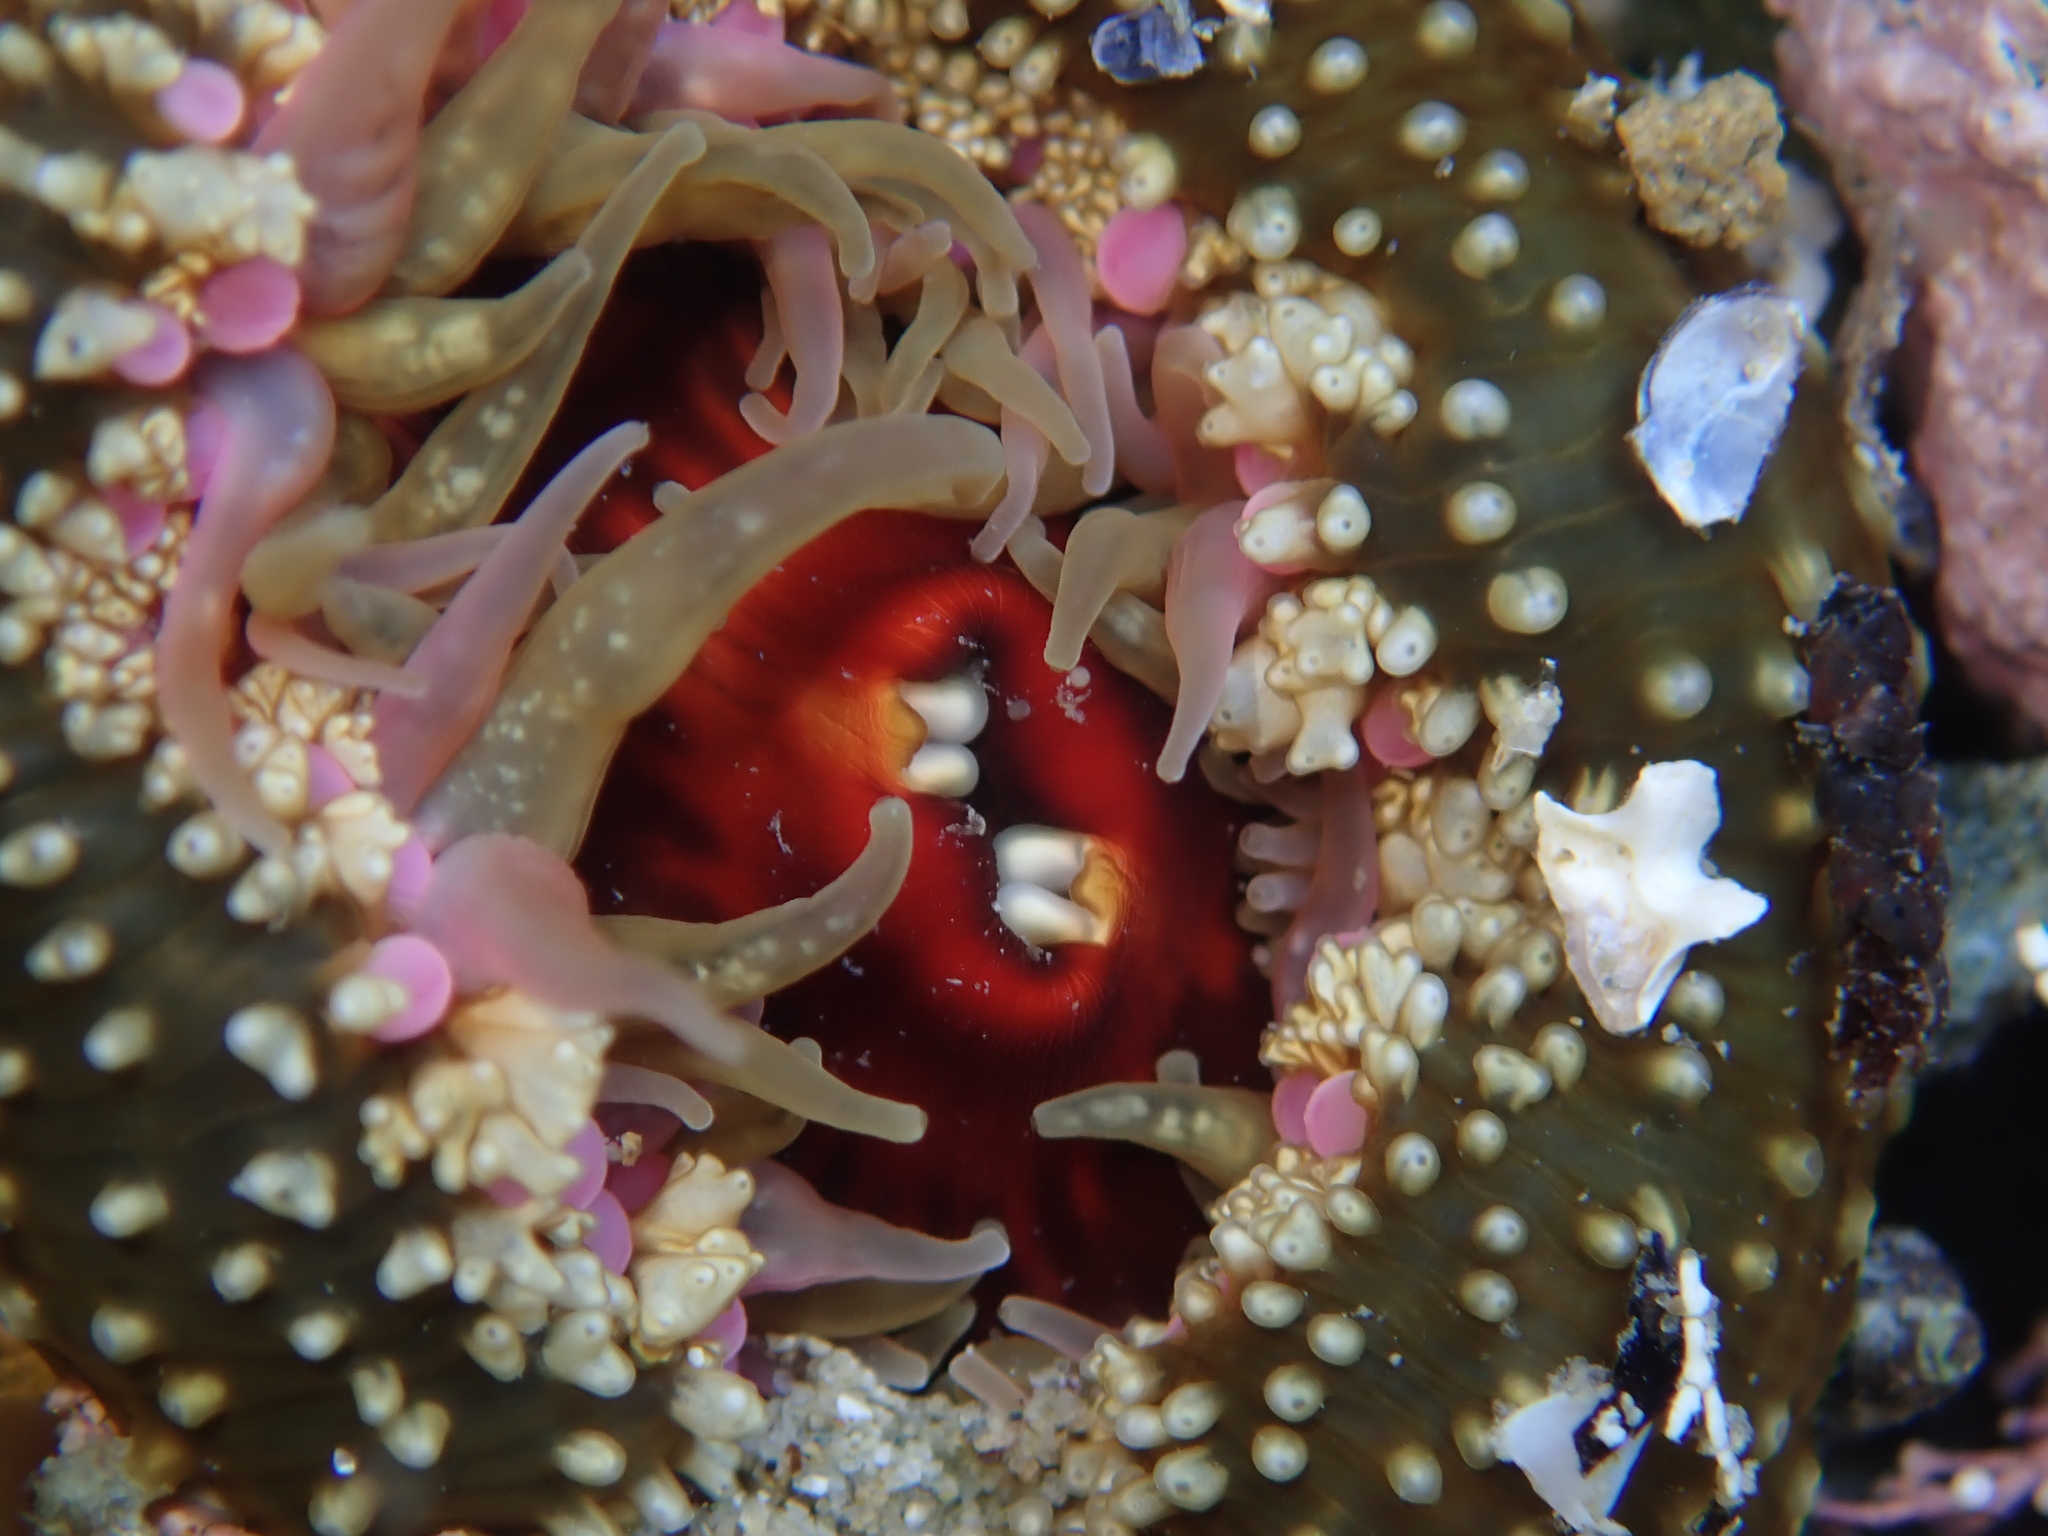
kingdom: Animalia
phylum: Cnidaria
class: Anthozoa
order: Actiniaria
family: Actiniidae
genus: Oulactis
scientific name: Oulactis muscosa
